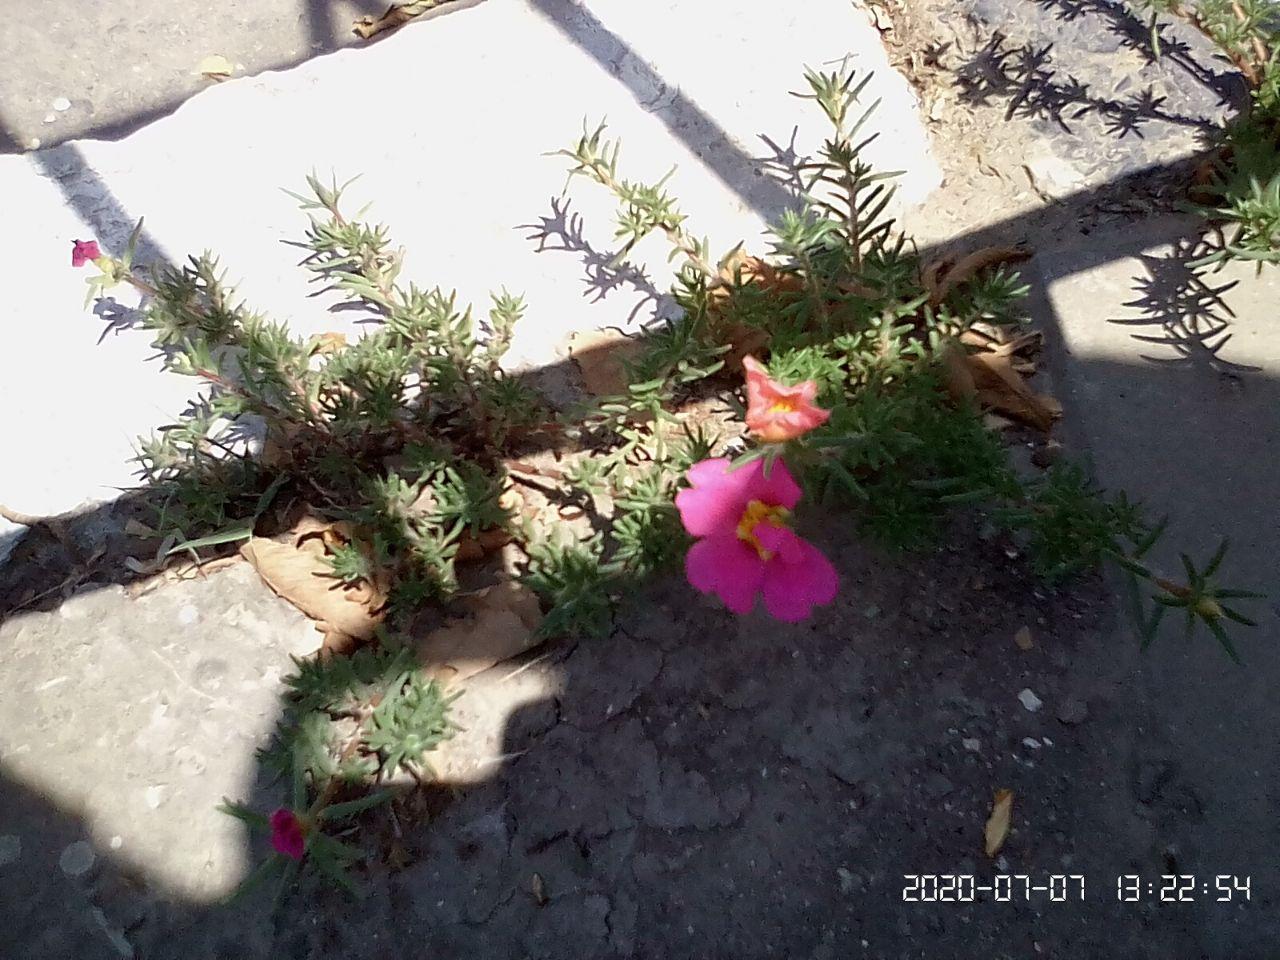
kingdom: Plantae
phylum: Tracheophyta
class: Magnoliopsida
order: Caryophyllales
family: Portulacaceae
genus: Portulaca
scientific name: Portulaca grandiflora
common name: Moss-rose
